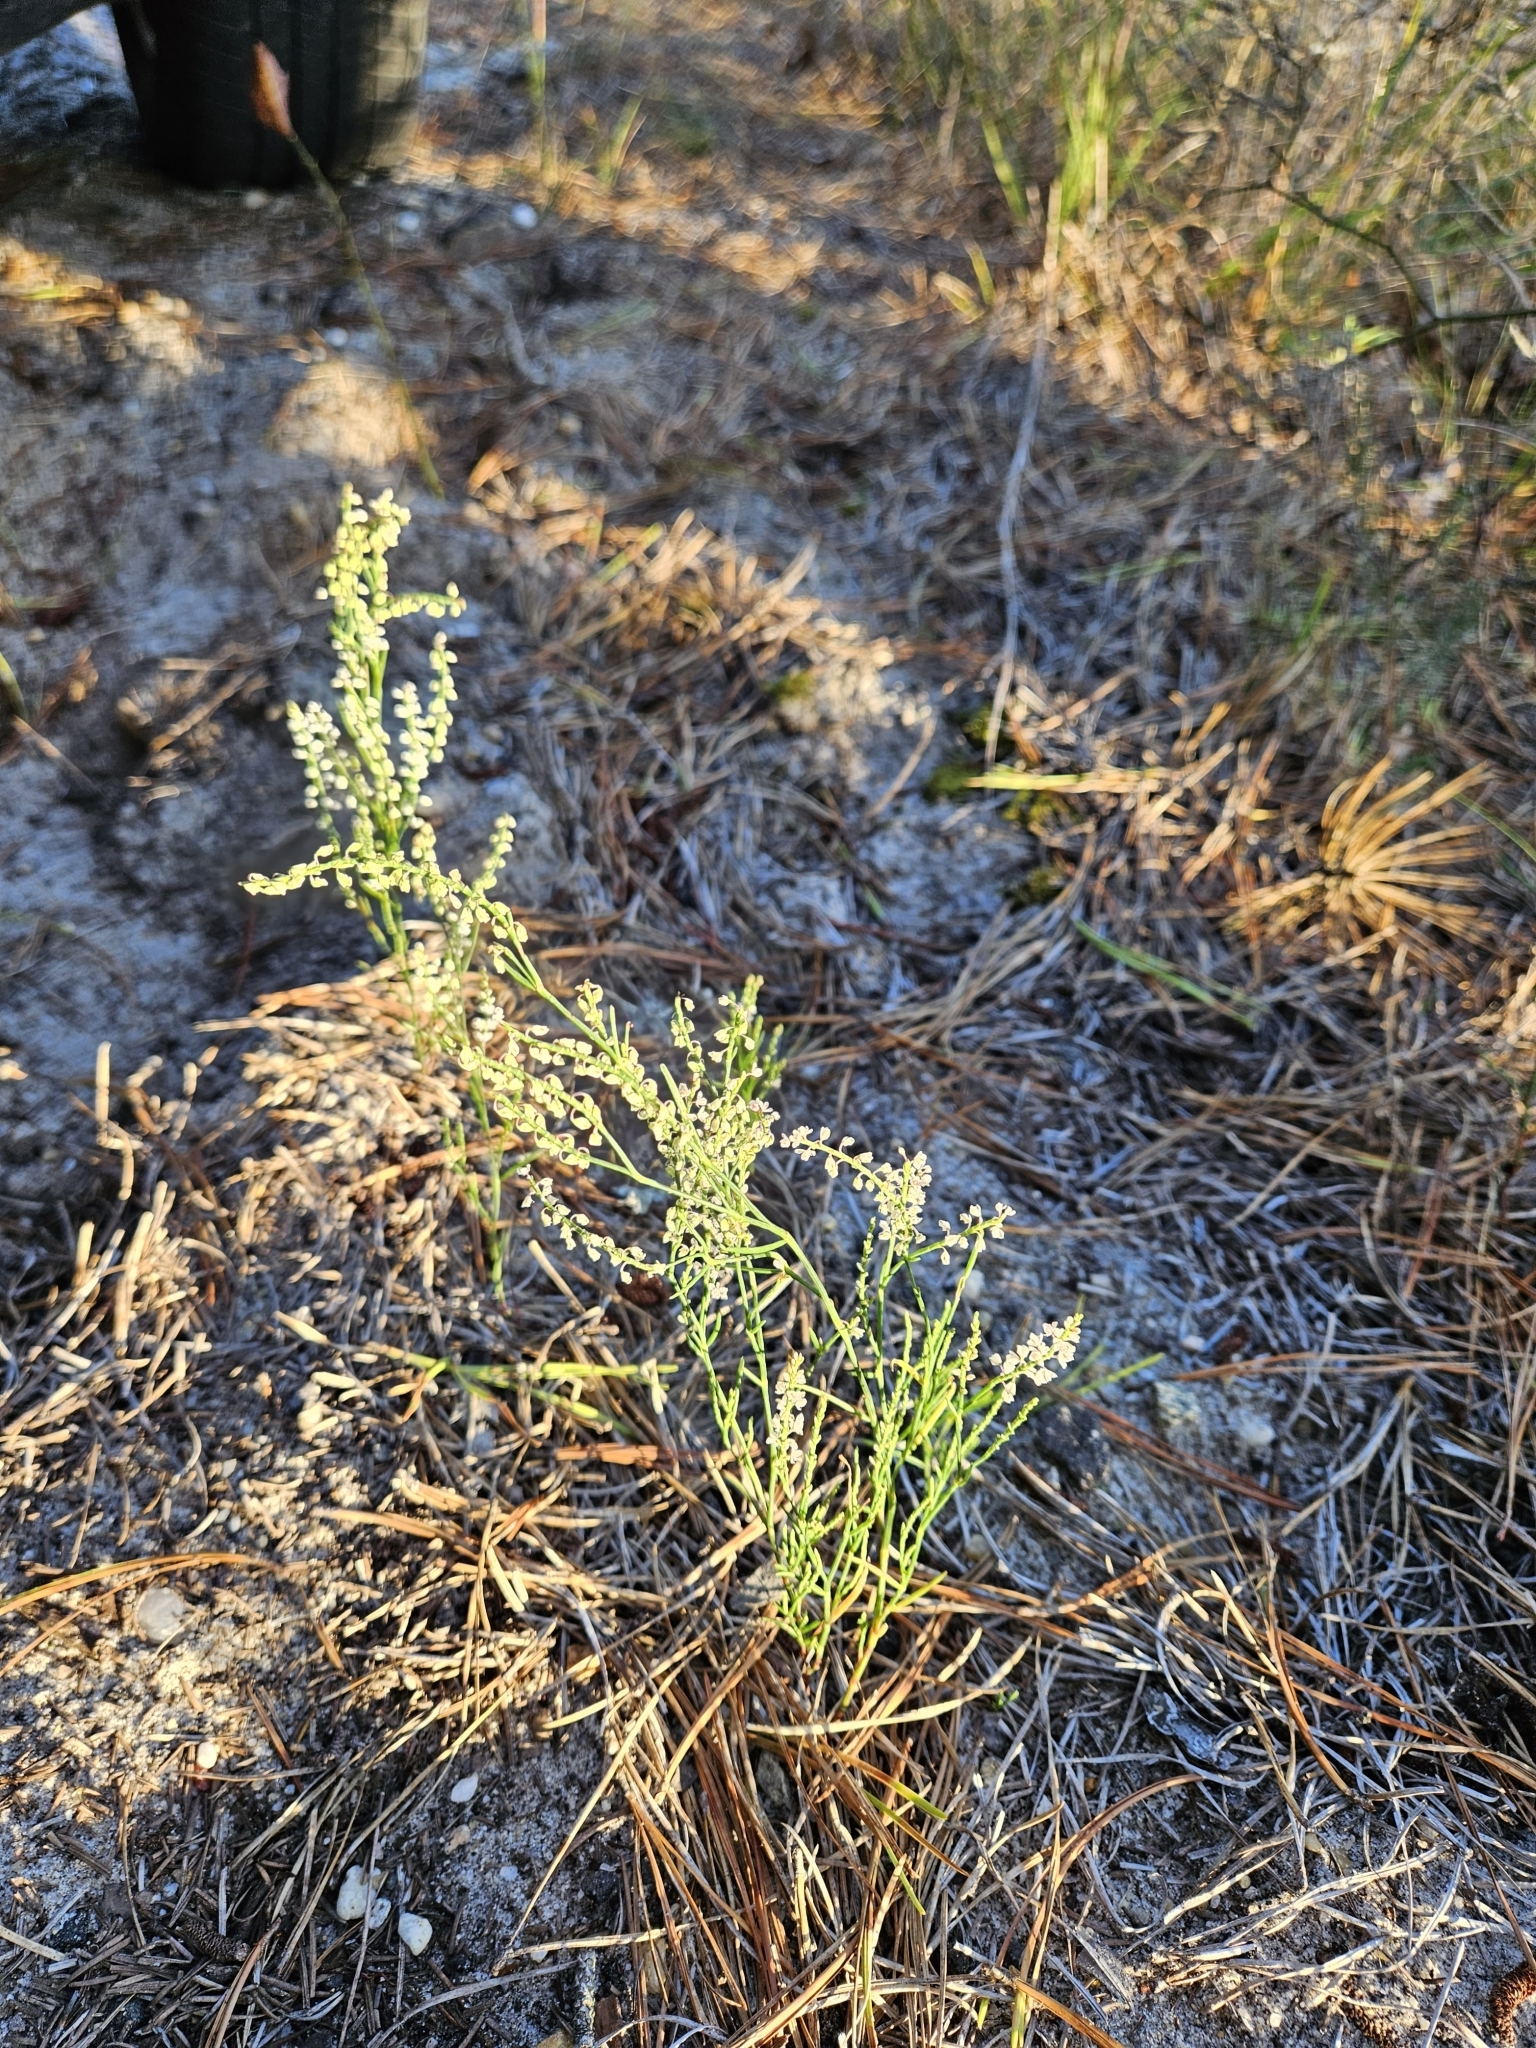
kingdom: Plantae
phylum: Tracheophyta
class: Magnoliopsida
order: Caryophyllales
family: Polygonaceae
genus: Polygonella
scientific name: Polygonella articulata
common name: Coastal jointweed
